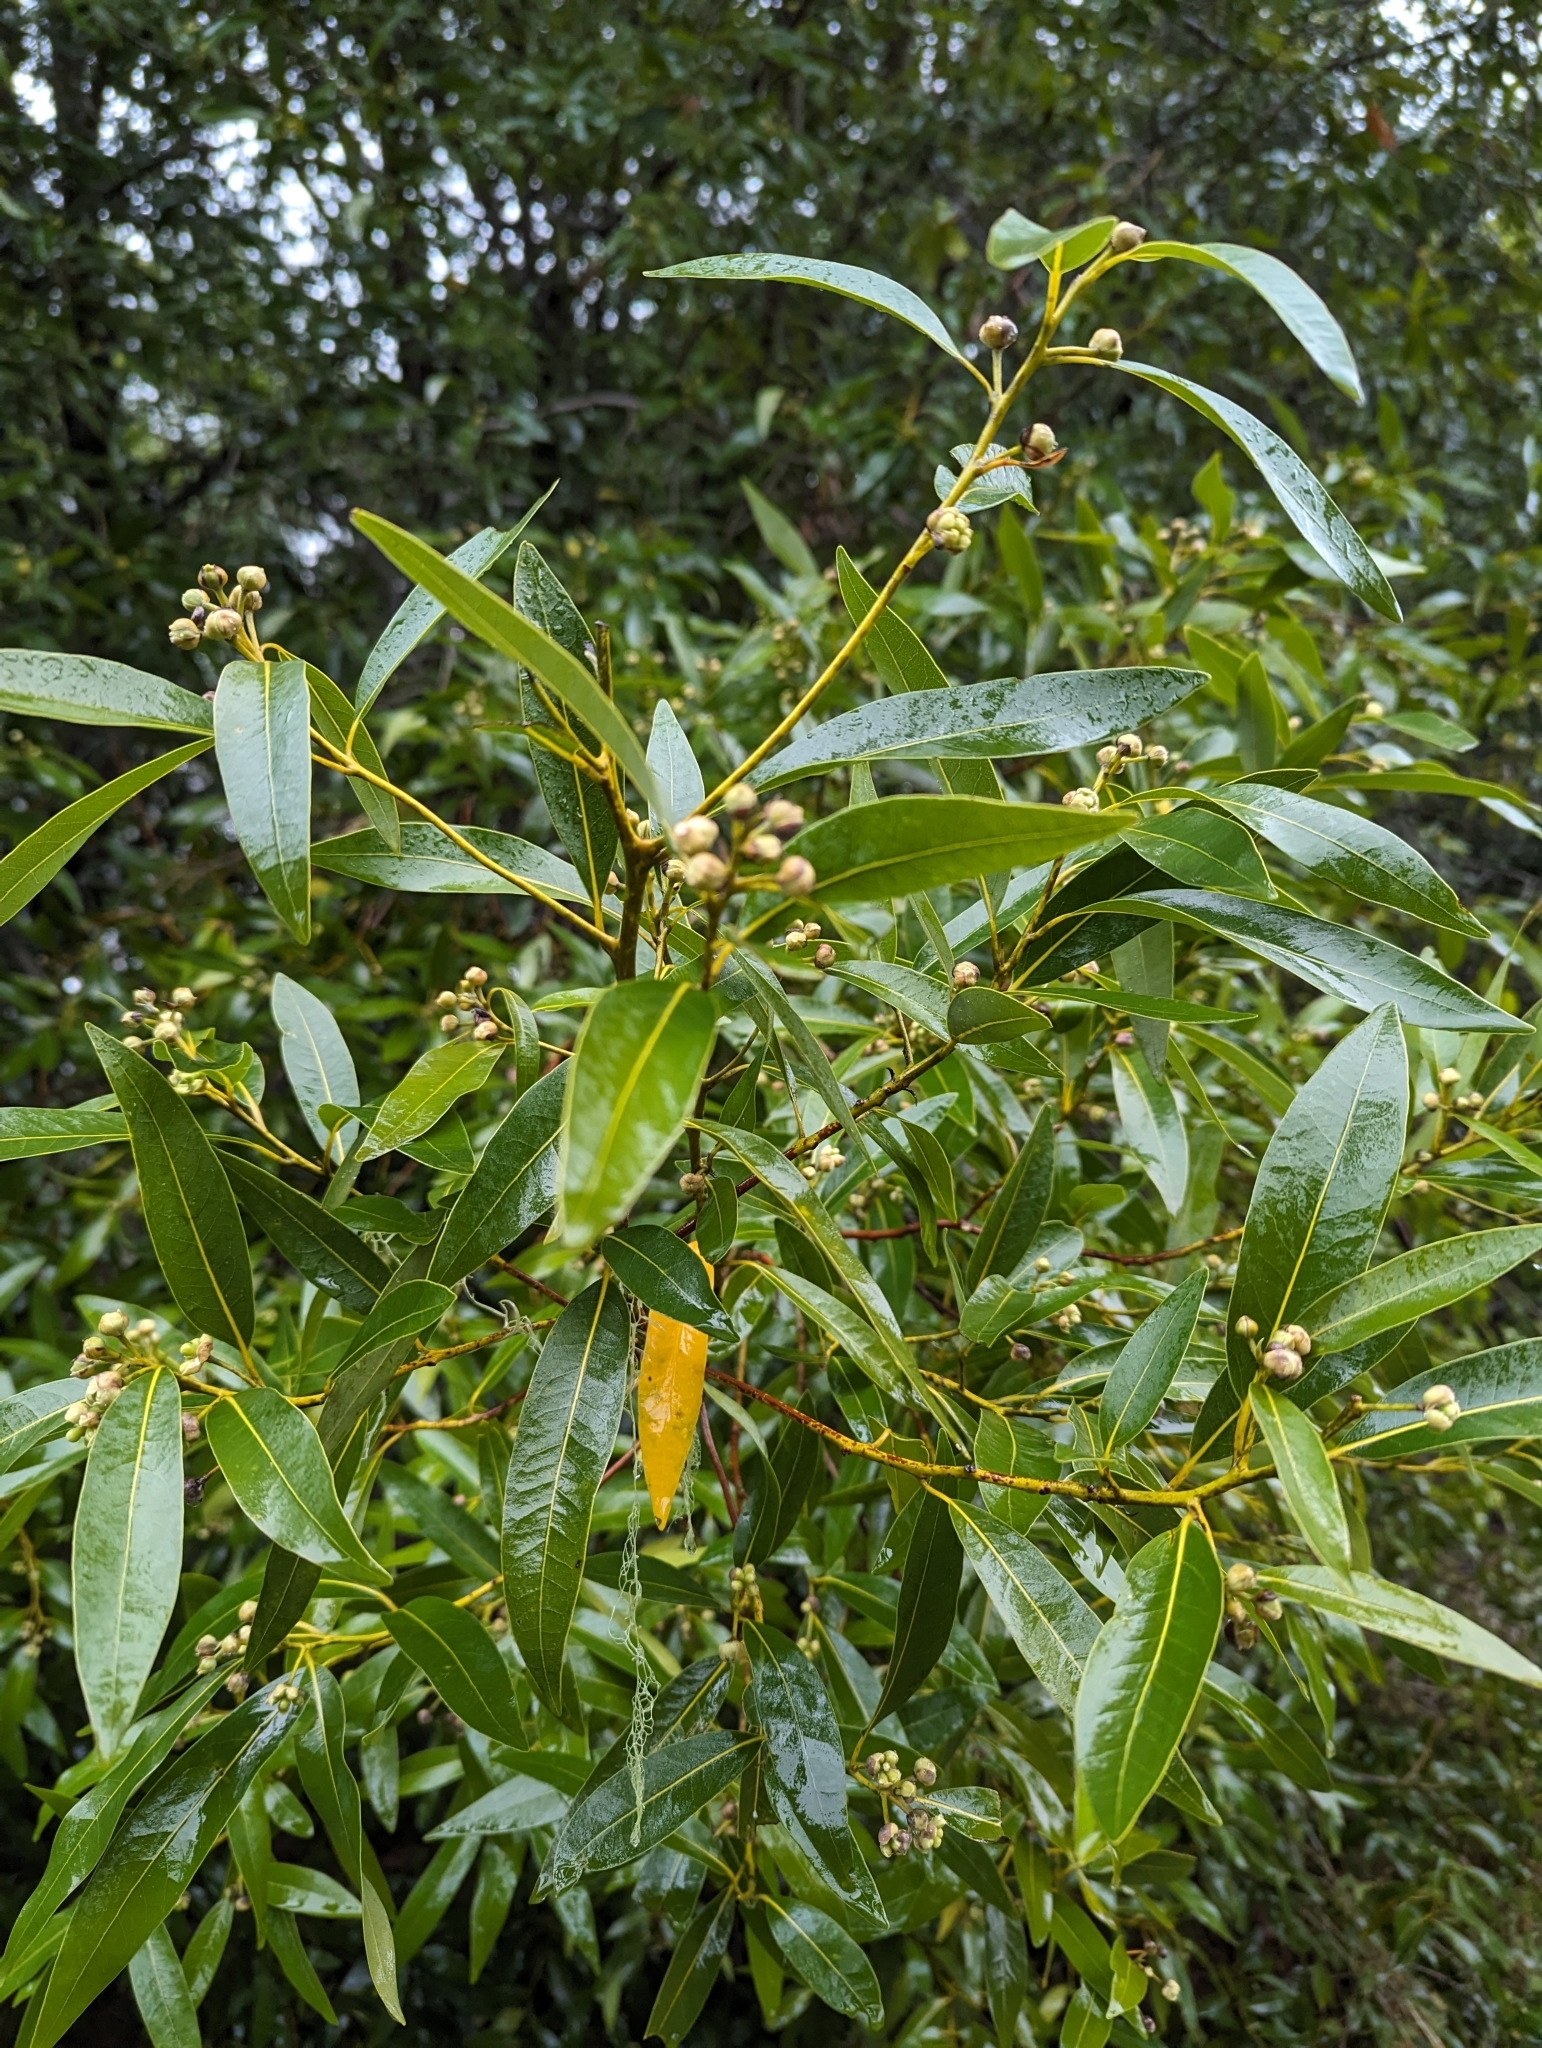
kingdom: Plantae
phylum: Tracheophyta
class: Magnoliopsida
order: Laurales
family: Lauraceae
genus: Umbellularia
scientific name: Umbellularia californica
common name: California bay
